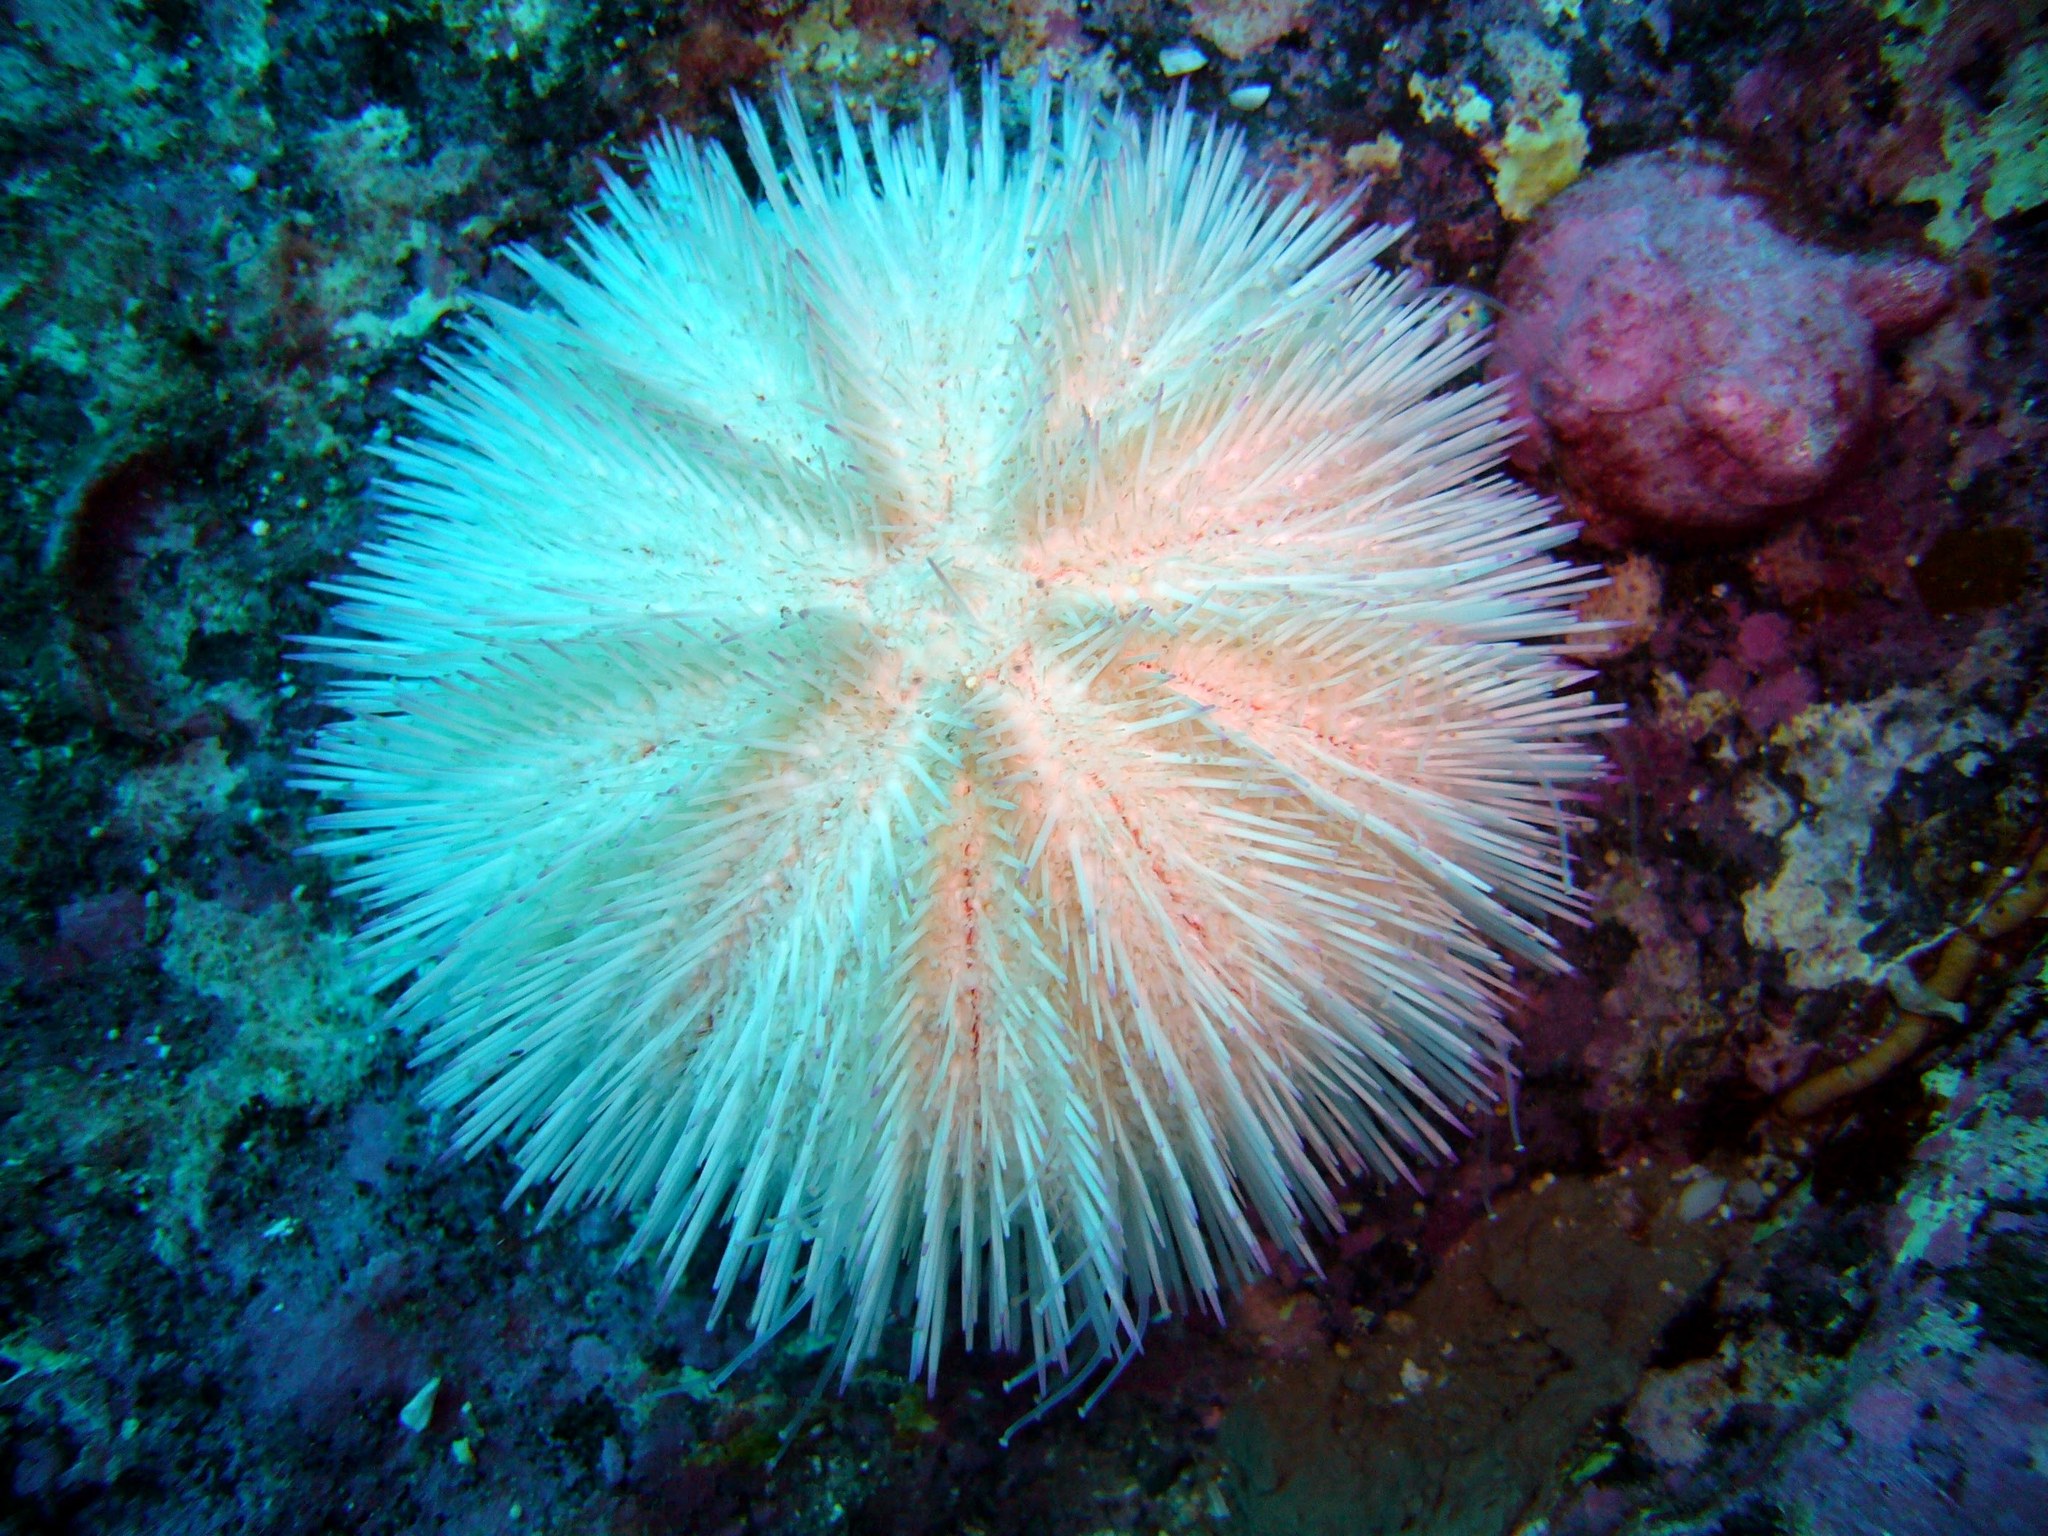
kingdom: Animalia
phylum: Echinodermata
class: Echinoidea
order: Camarodonta
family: Toxopneustidae
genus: Pseudoboletia
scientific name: Pseudoboletia indiana
